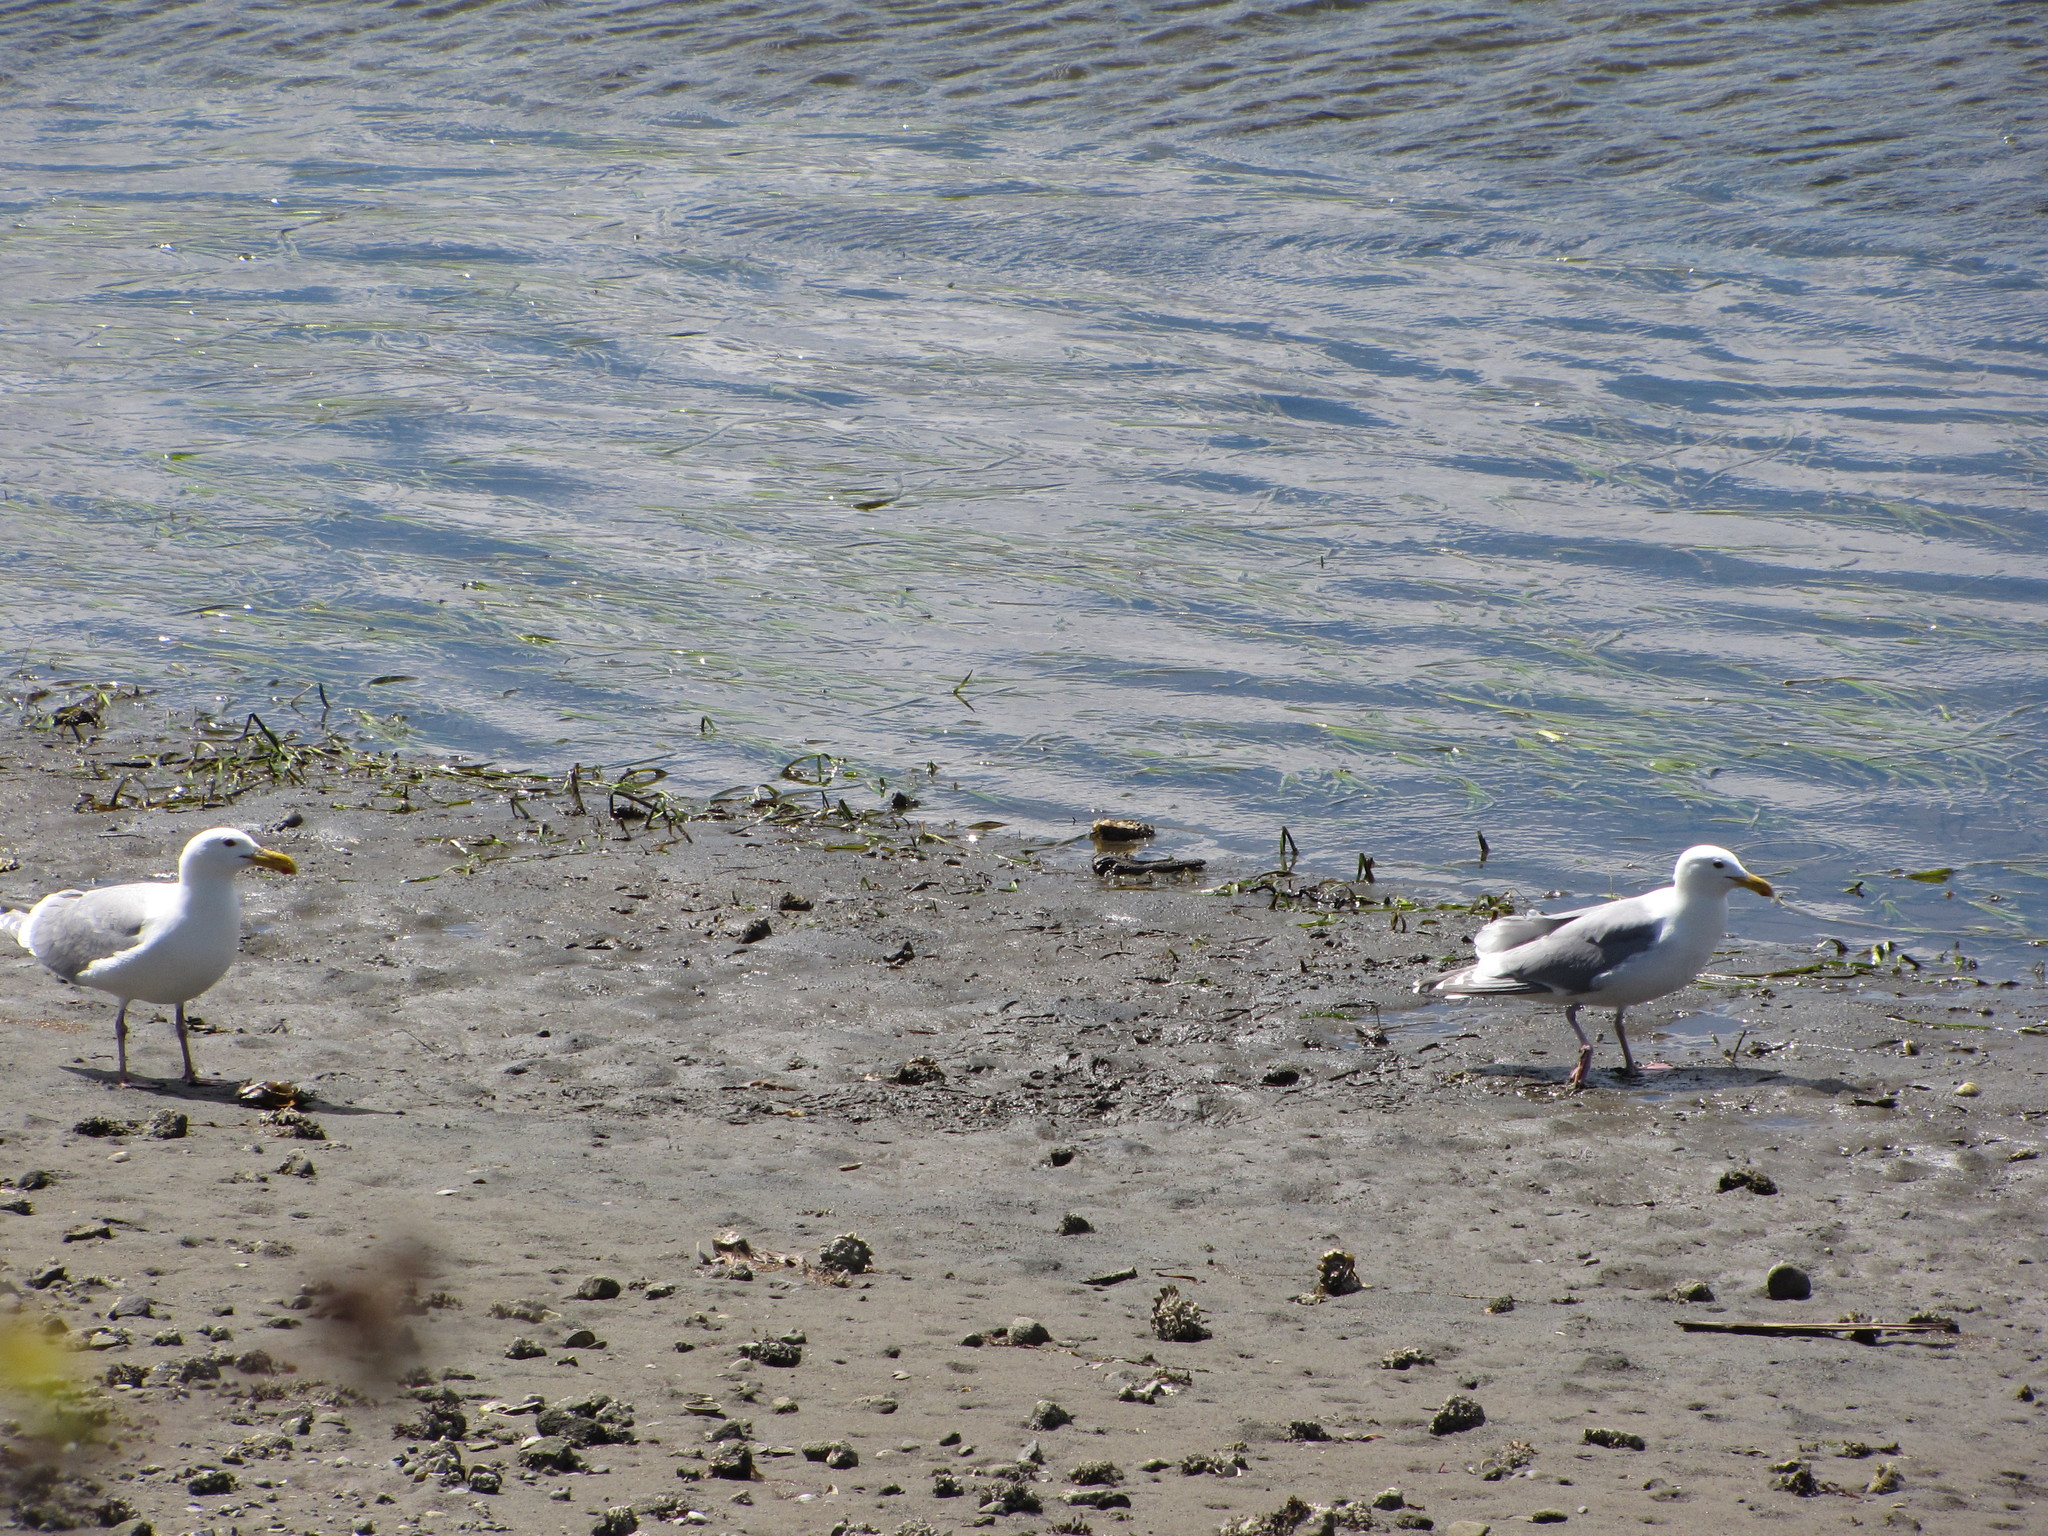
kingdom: Animalia
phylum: Chordata
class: Aves
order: Charadriiformes
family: Laridae
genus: Larus
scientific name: Larus glaucescens
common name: Glaucous-winged gull
